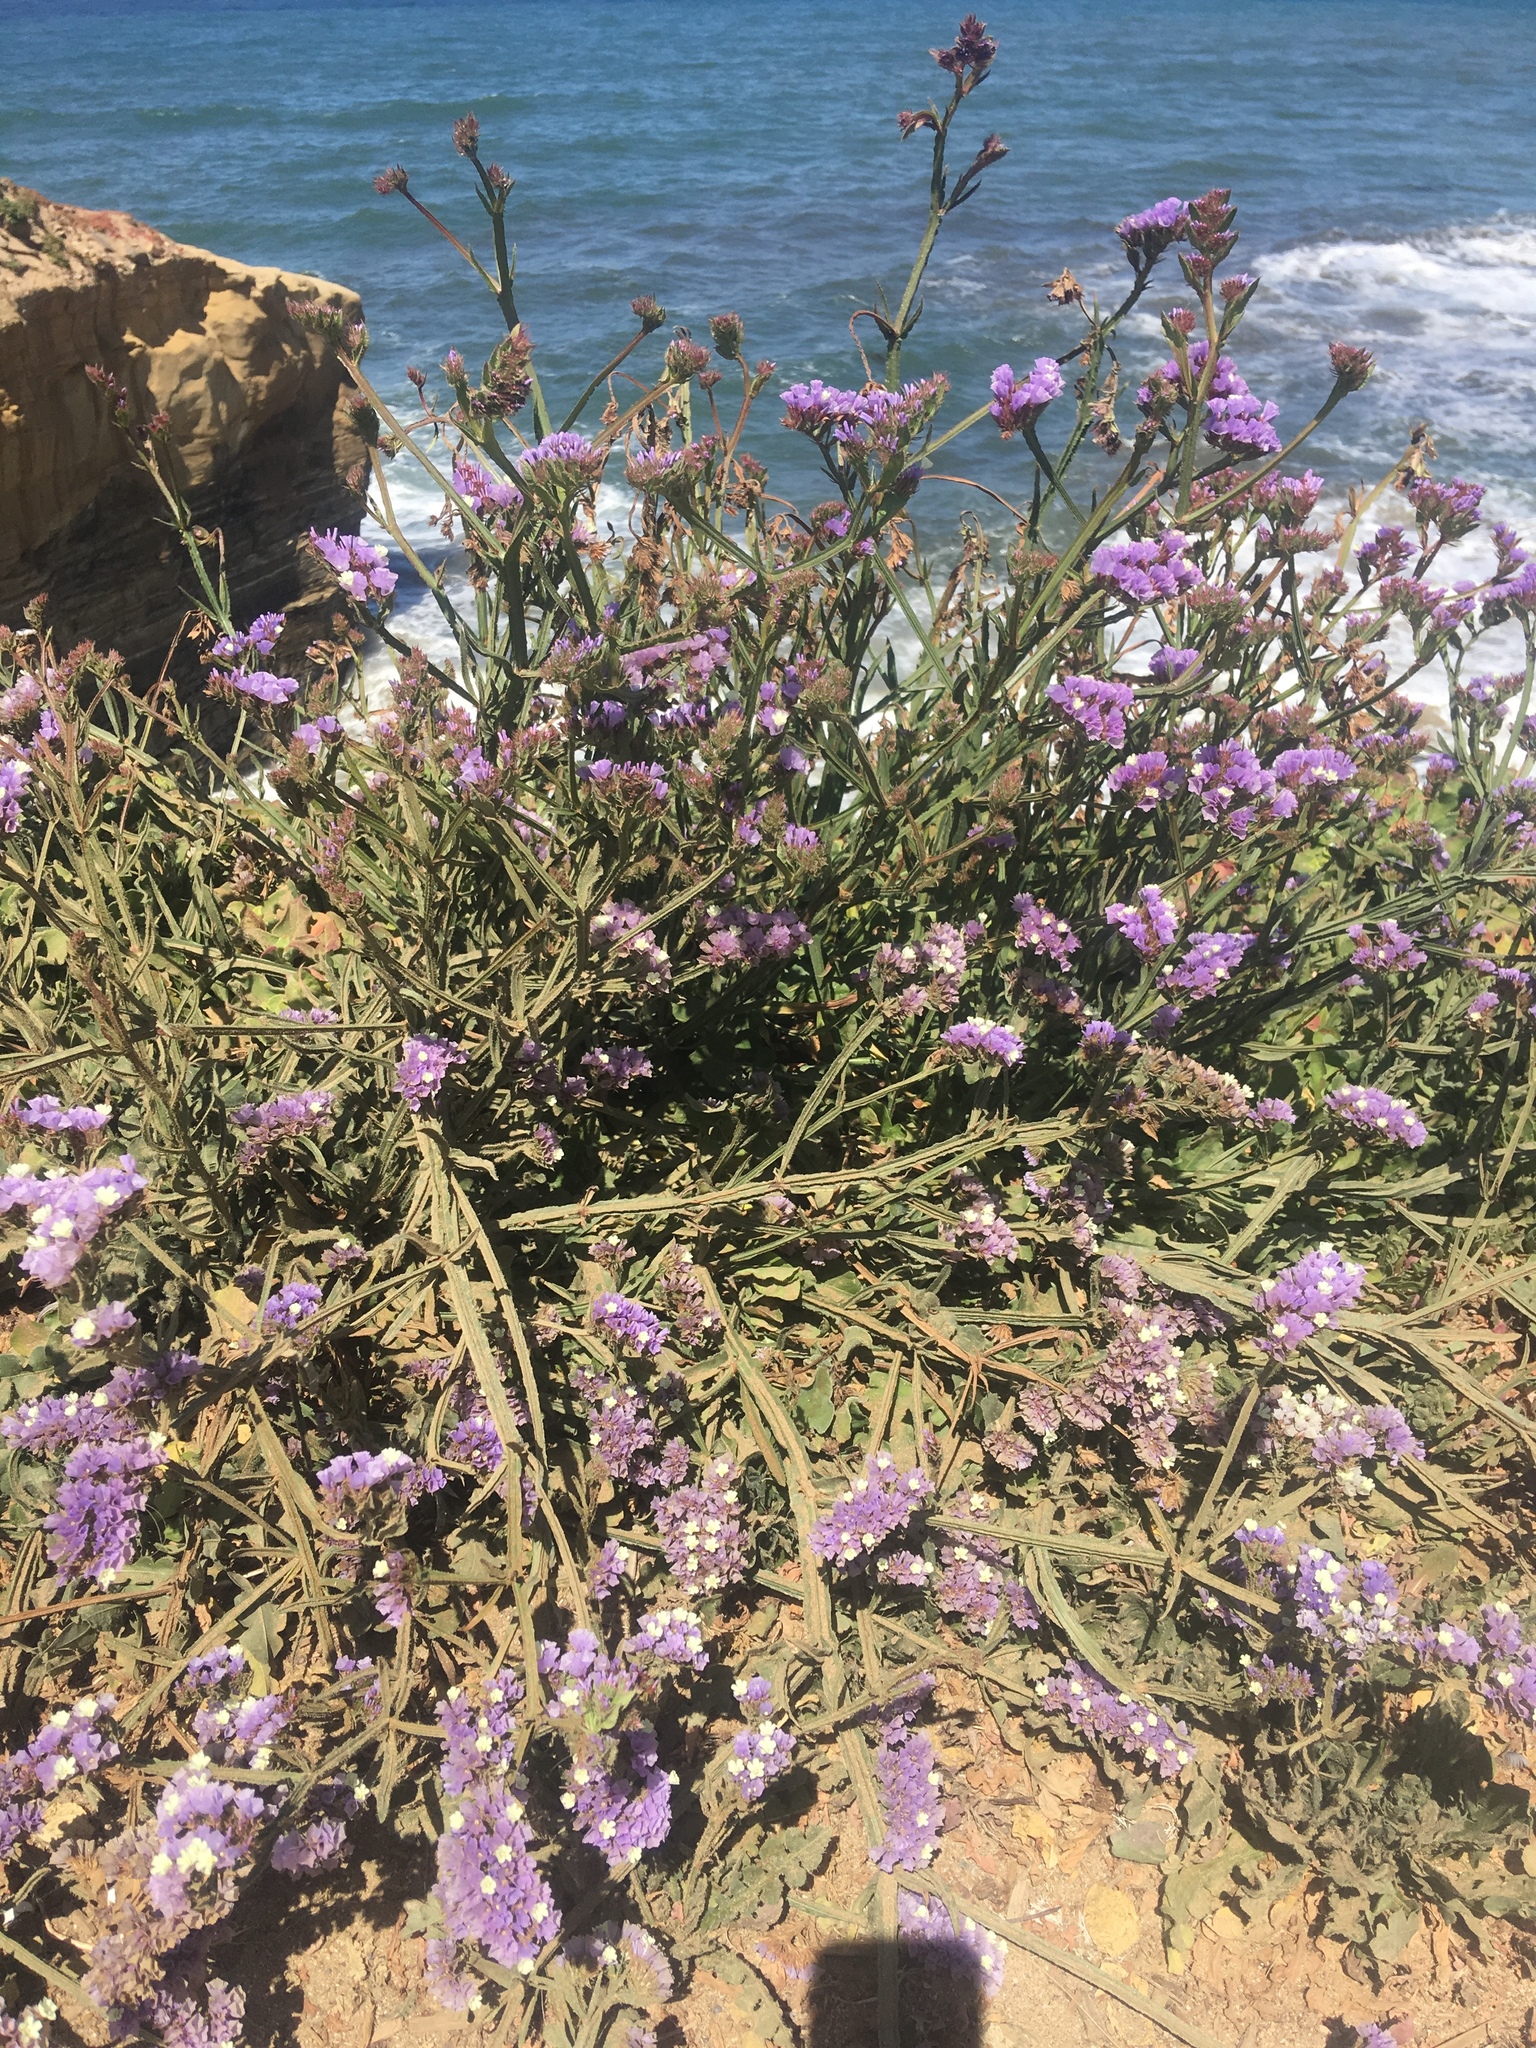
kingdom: Plantae
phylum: Tracheophyta
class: Magnoliopsida
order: Caryophyllales
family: Plumbaginaceae
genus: Limonium
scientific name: Limonium sinuatum
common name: Statice
